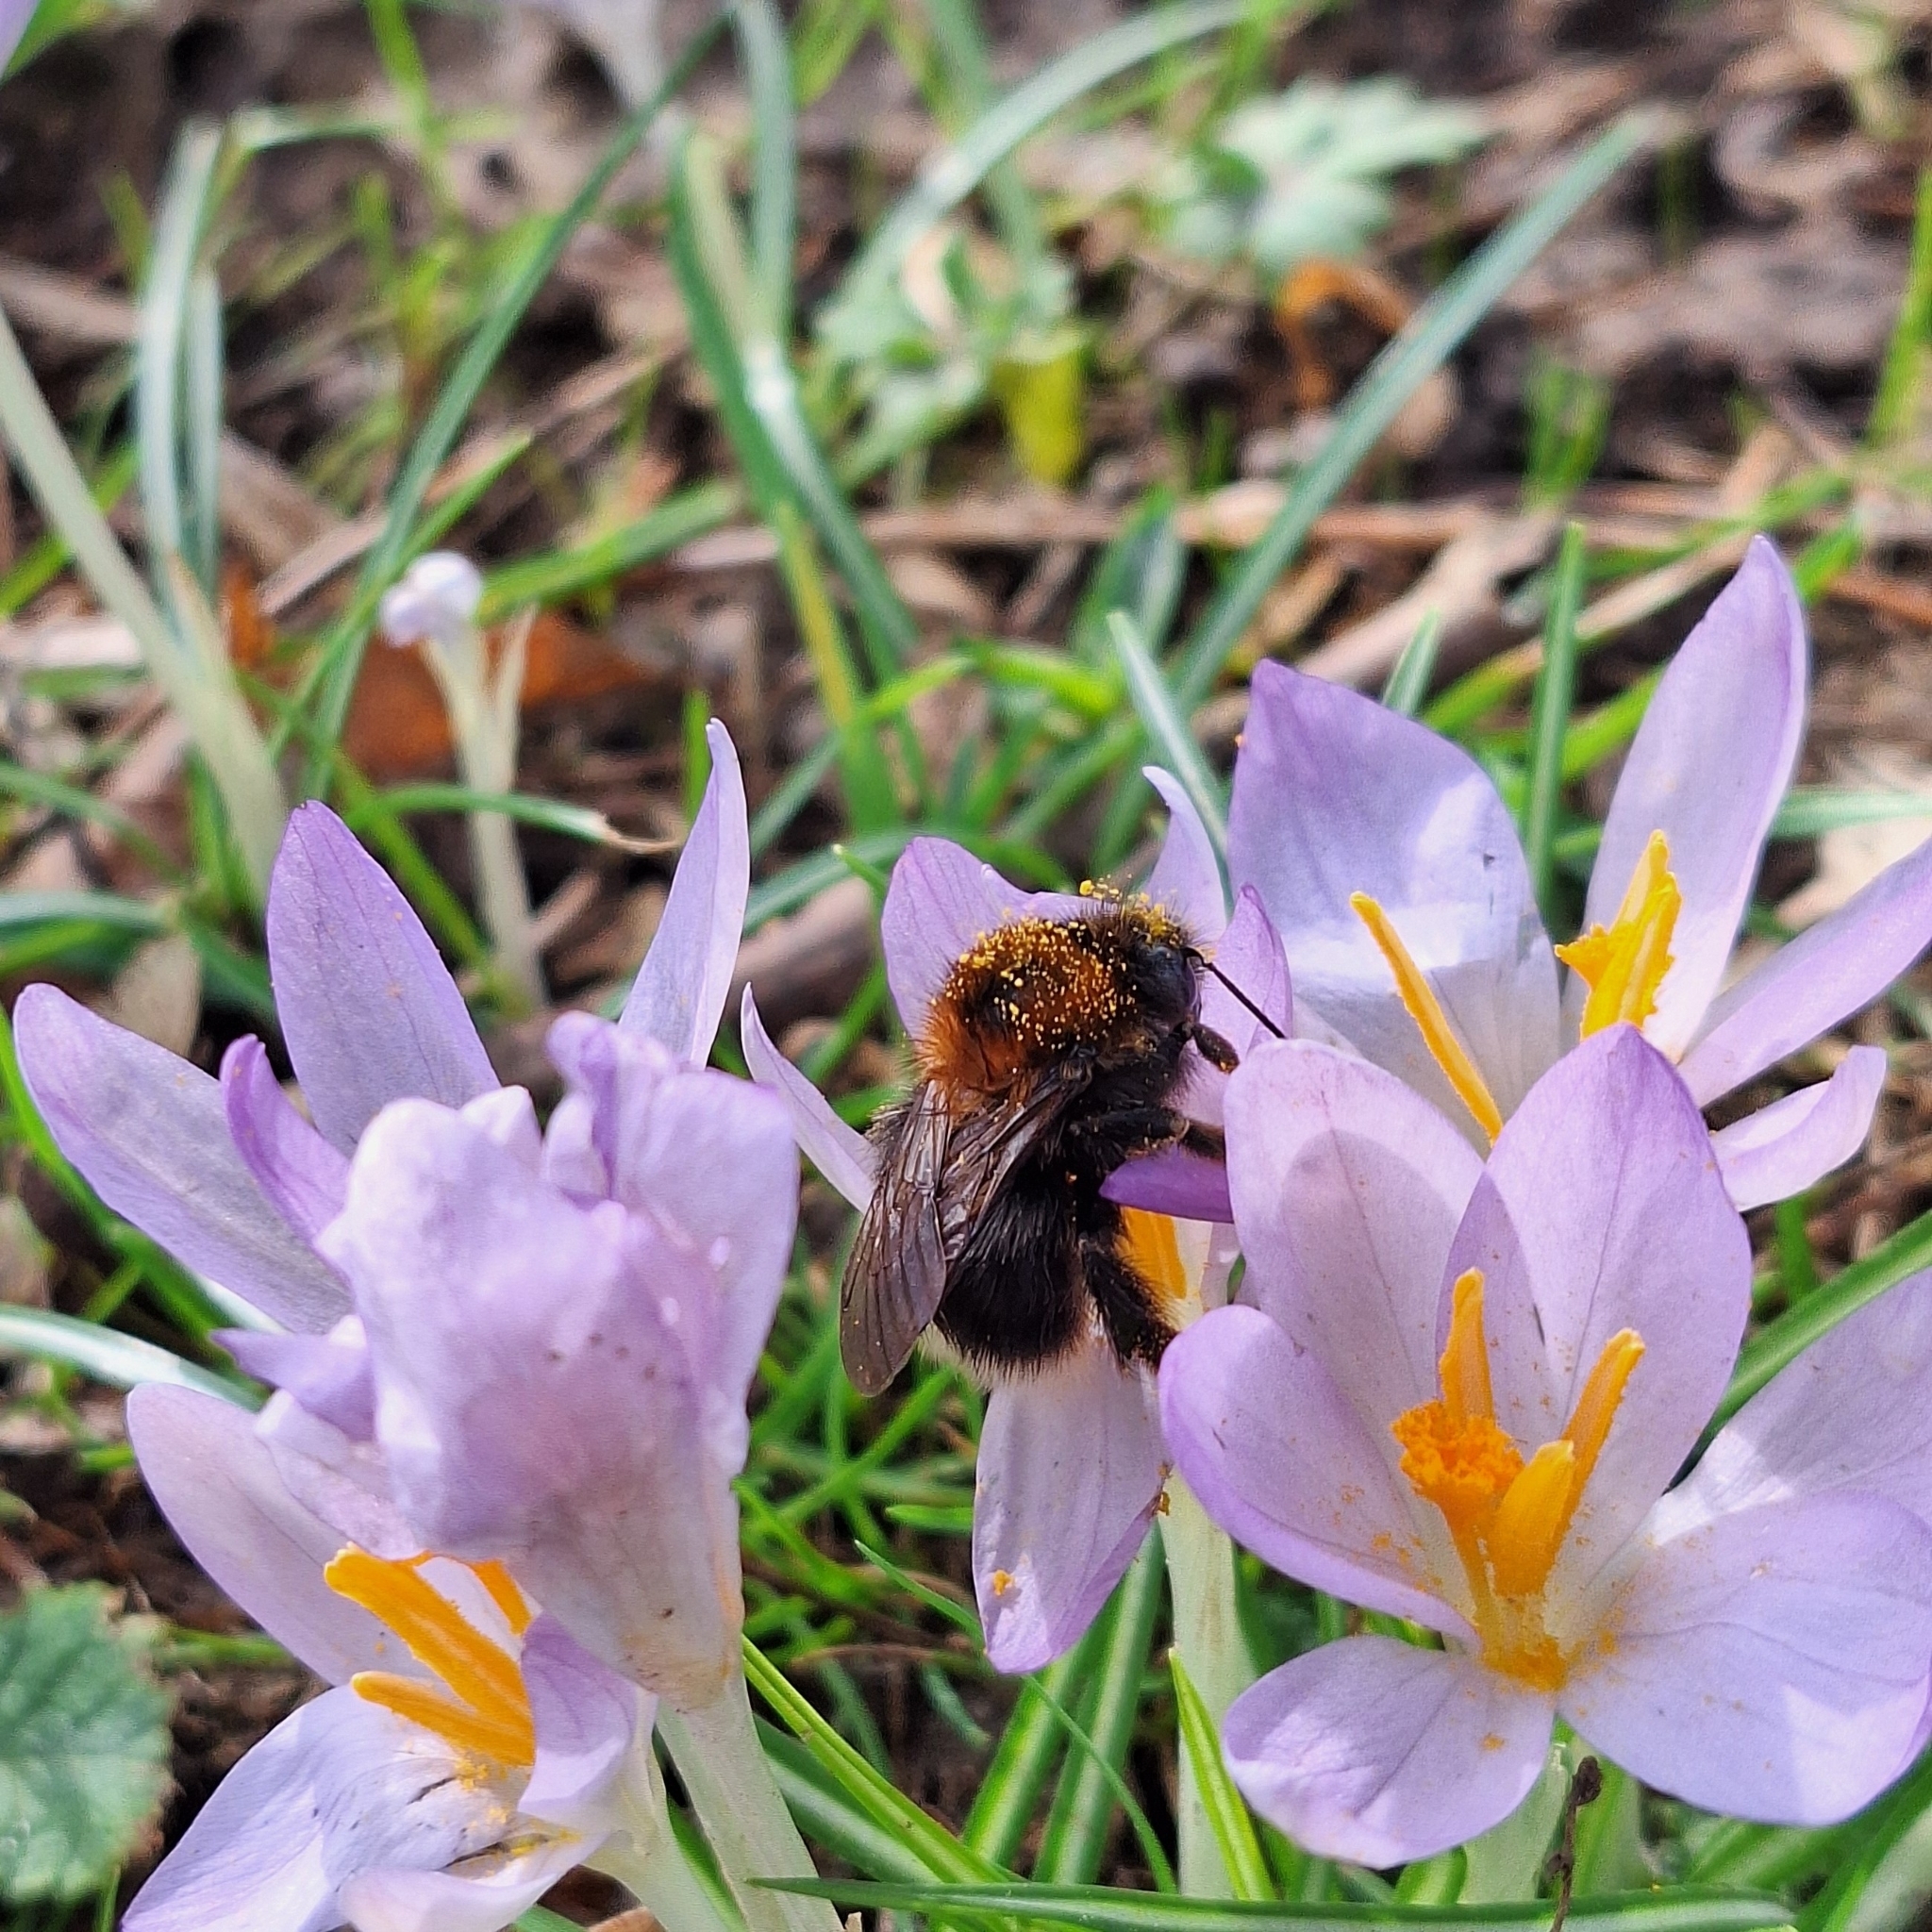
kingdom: Animalia
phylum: Arthropoda
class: Insecta
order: Hymenoptera
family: Apidae
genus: Bombus
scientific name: Bombus hypnorum
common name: New garden bumblebee
